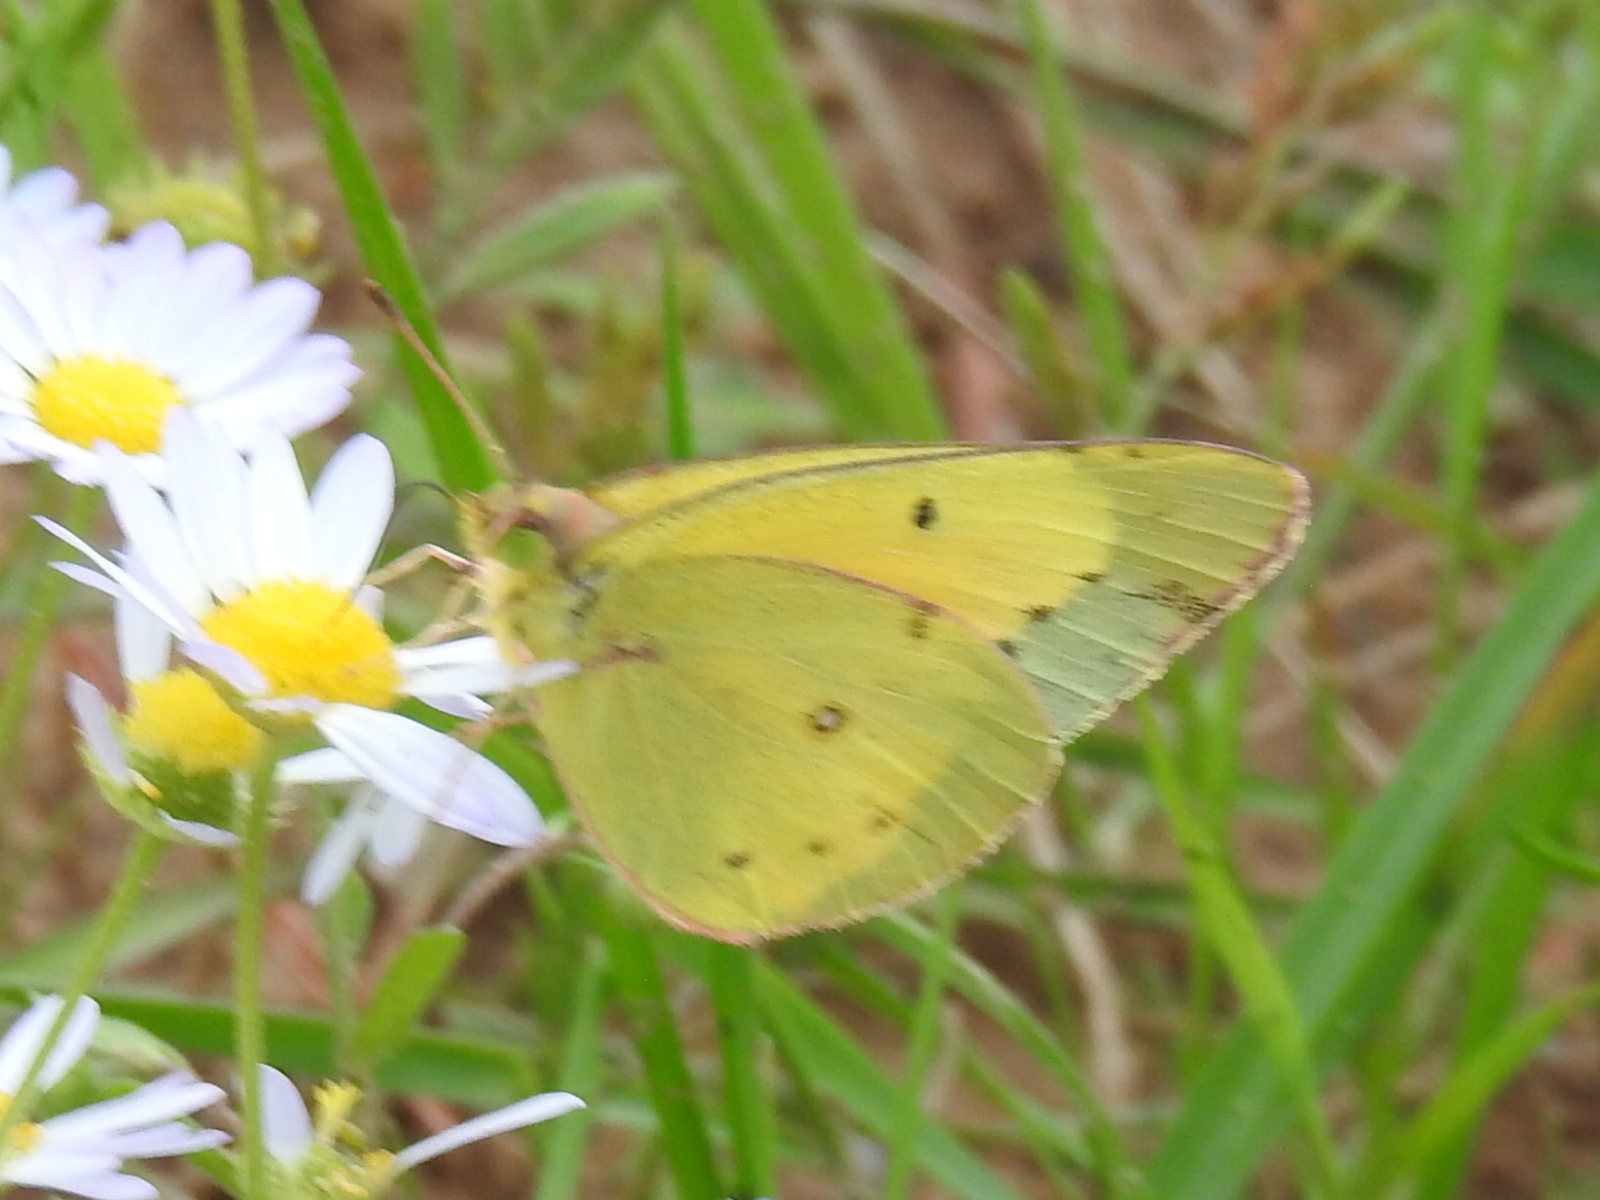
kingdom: Animalia
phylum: Arthropoda
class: Insecta
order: Lepidoptera
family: Pieridae
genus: Colias
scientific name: Colias eurytheme
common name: Alfalfa butterfly
